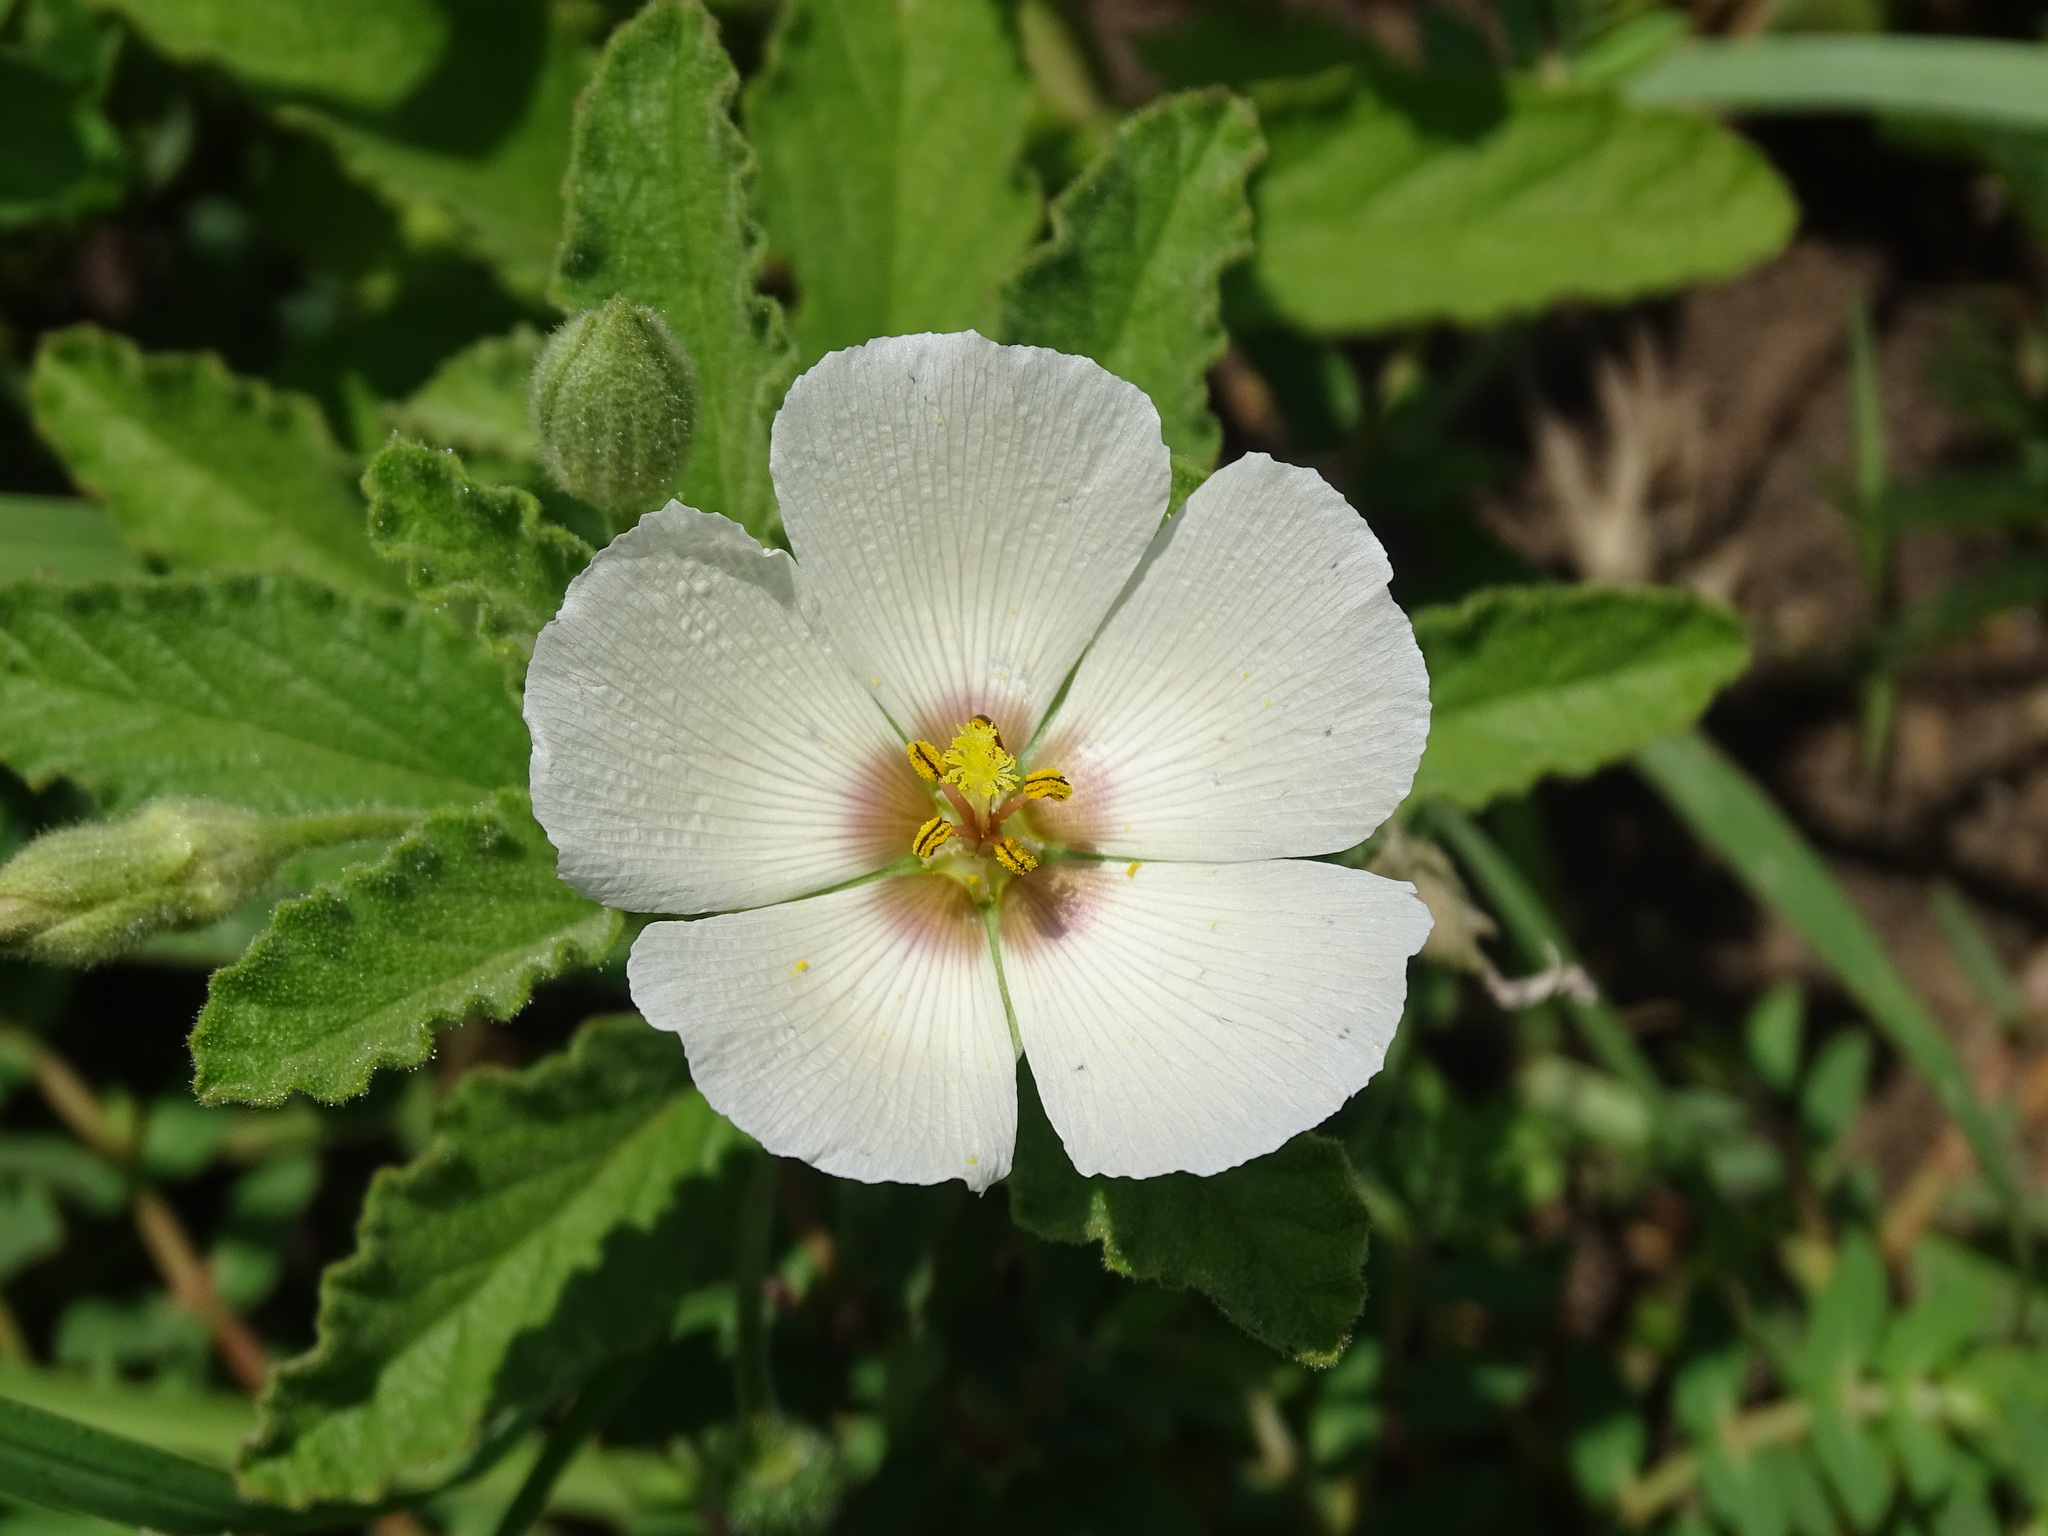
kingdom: Plantae
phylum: Tracheophyta
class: Magnoliopsida
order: Malpighiales
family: Turneraceae
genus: Piriqueta
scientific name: Piriqueta mortonii
